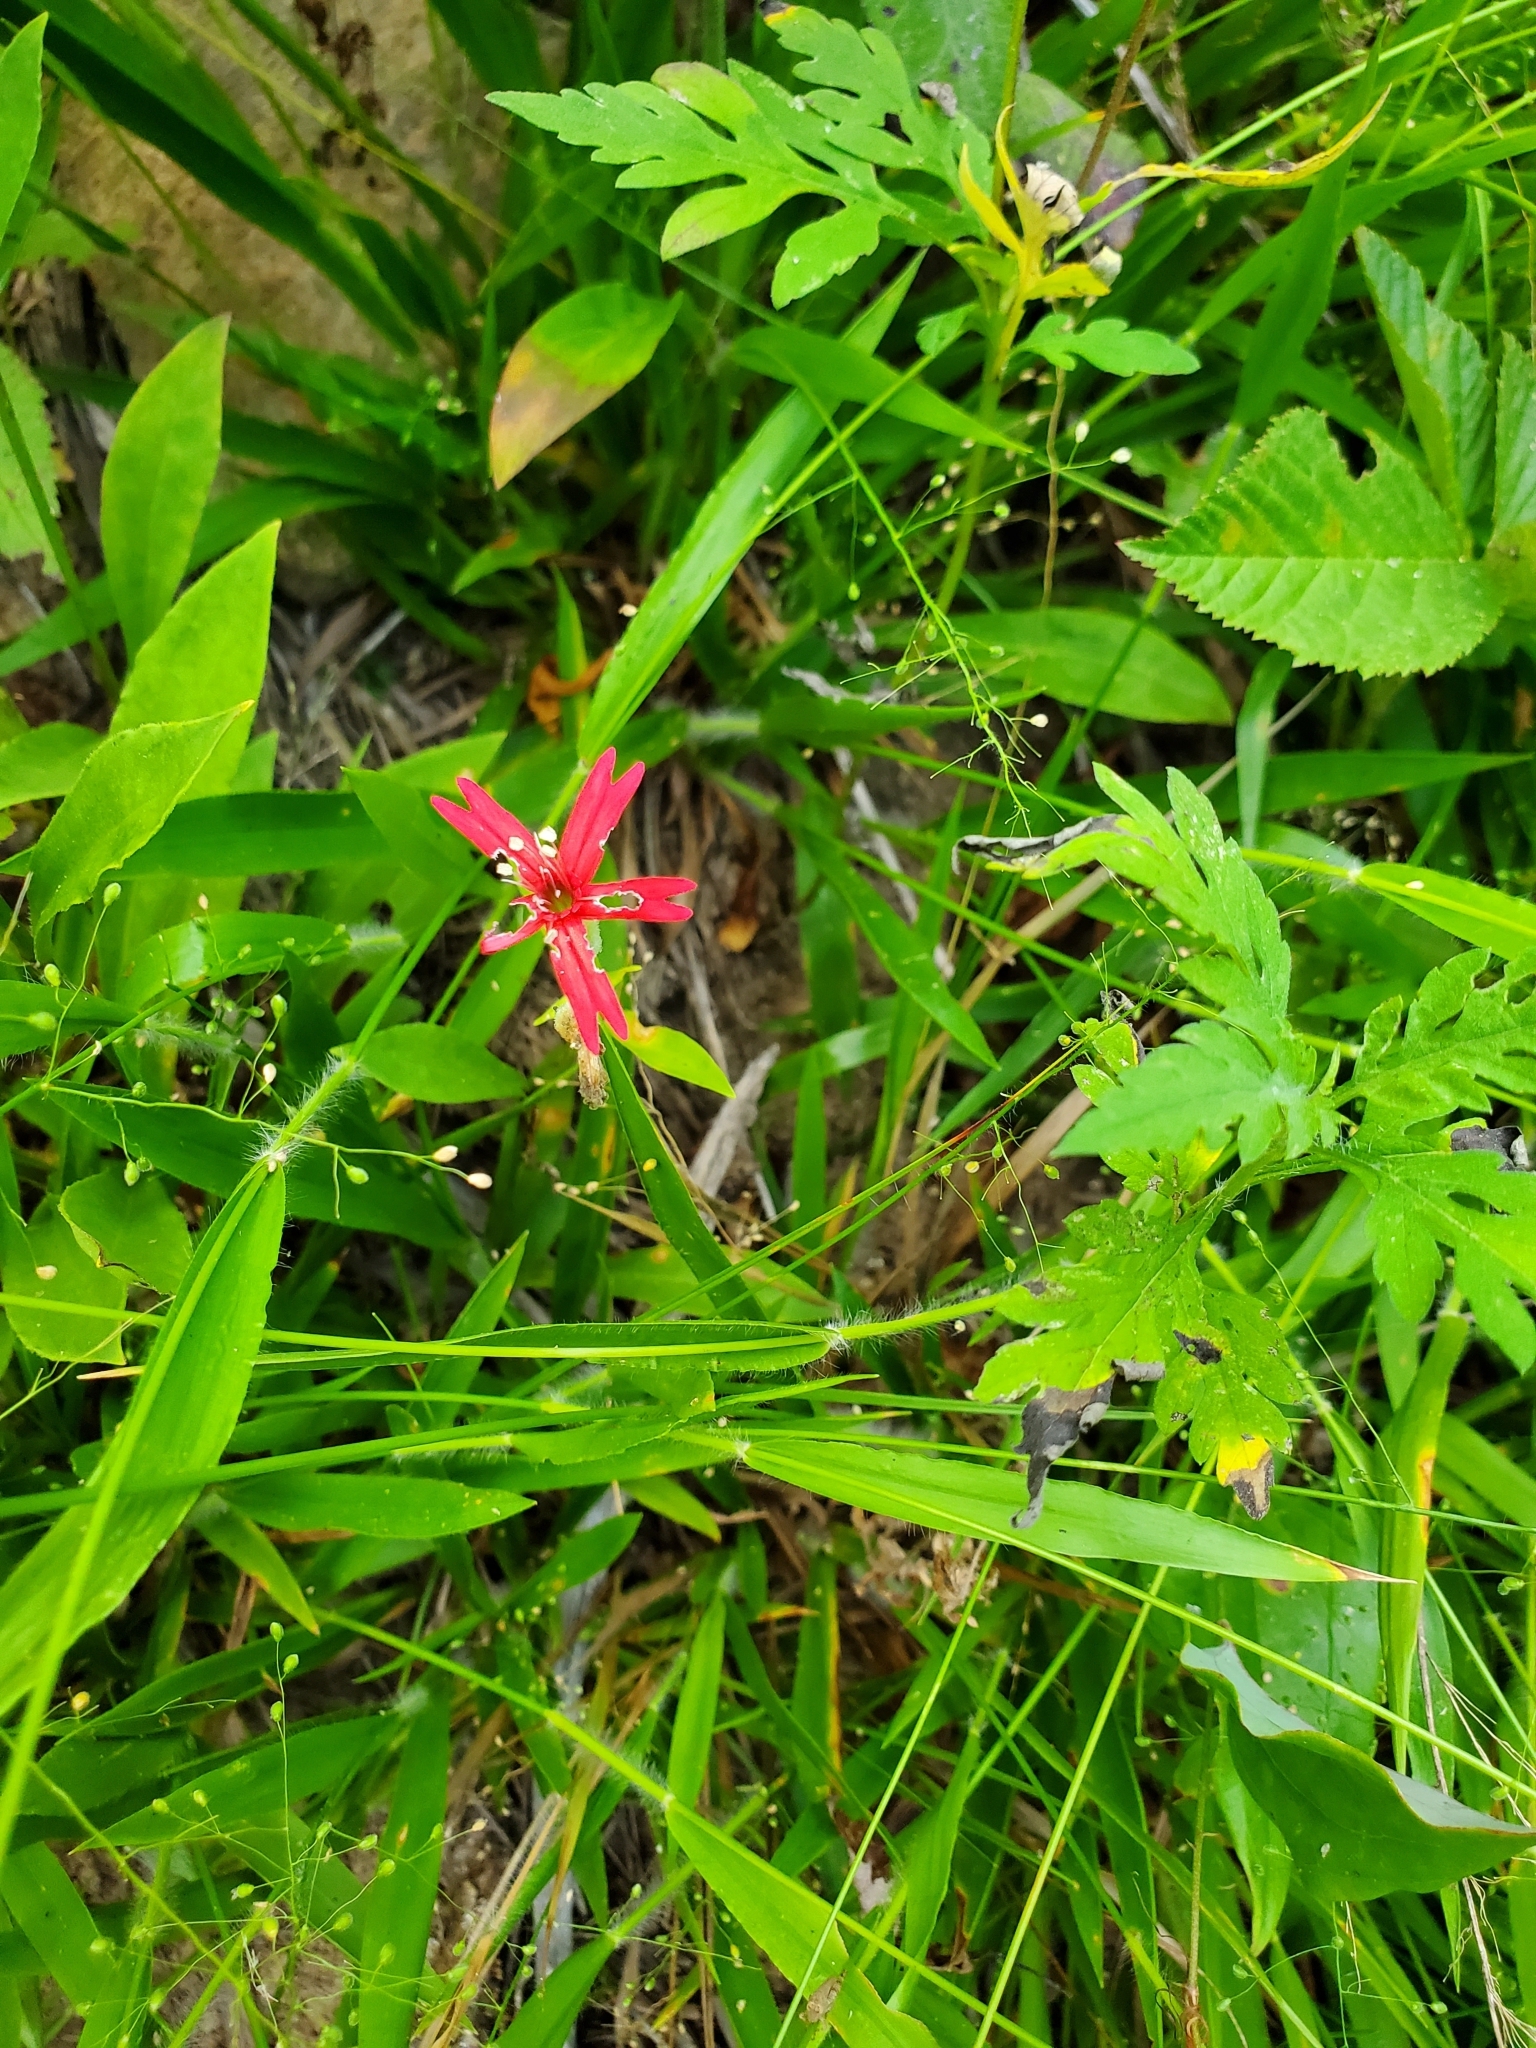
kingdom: Plantae
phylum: Tracheophyta
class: Magnoliopsida
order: Caryophyllales
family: Caryophyllaceae
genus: Silene
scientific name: Silene virginica
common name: Fire-pink
